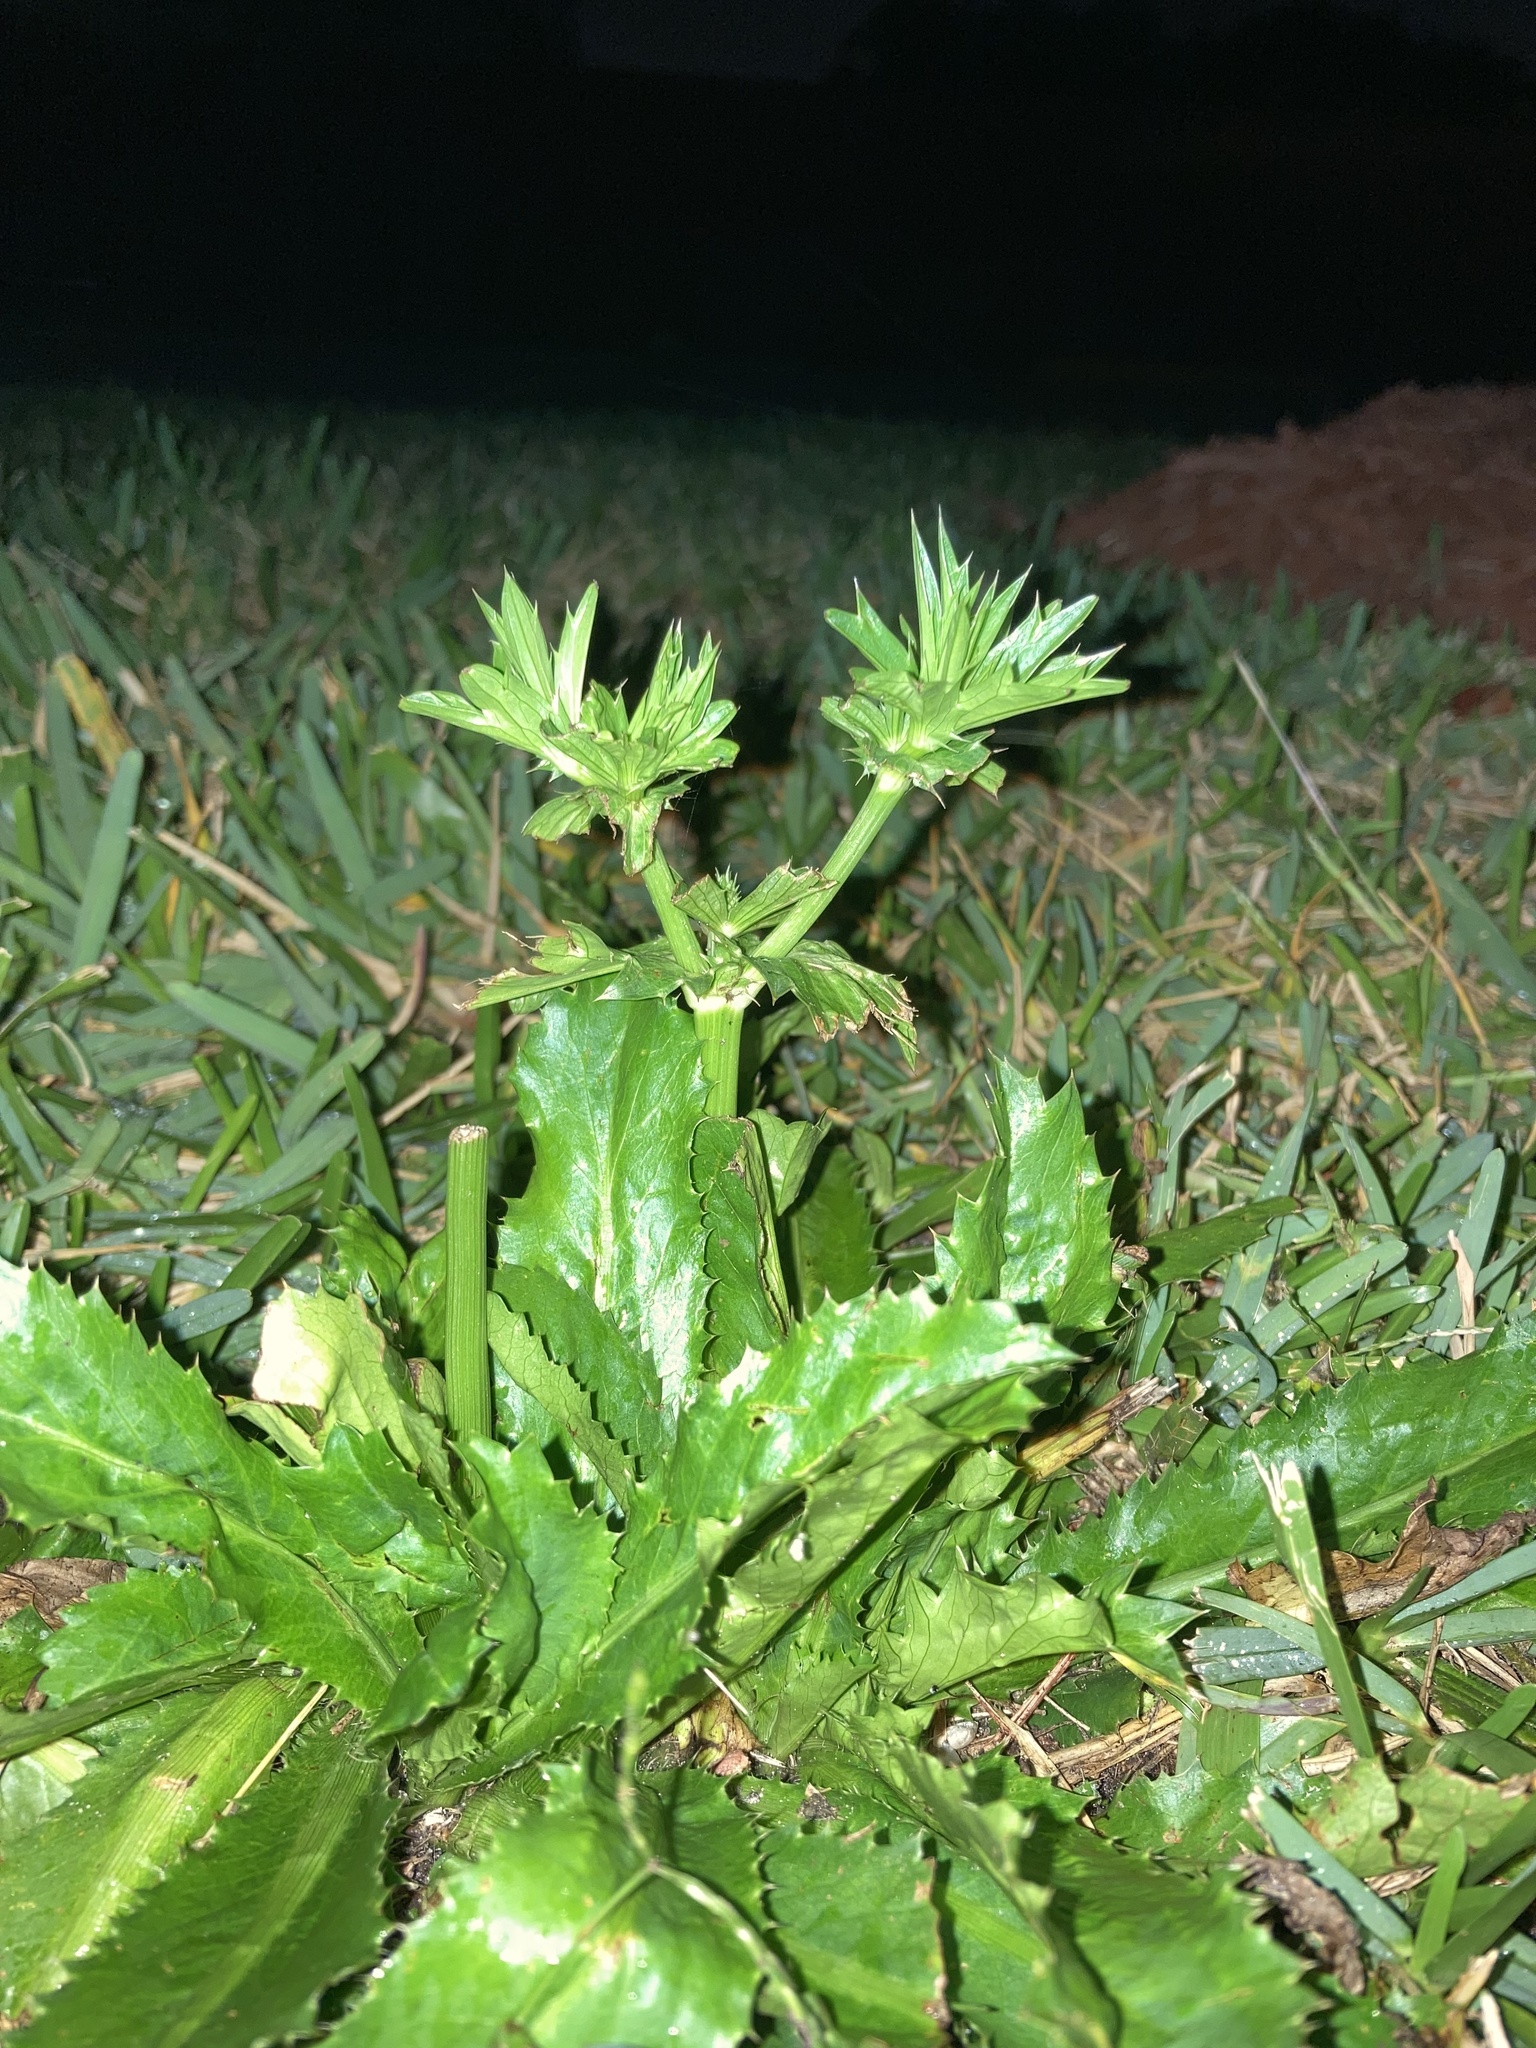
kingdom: Plantae
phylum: Tracheophyta
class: Magnoliopsida
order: Apiales
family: Apiaceae
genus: Eryngium
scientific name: Eryngium foetidum
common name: Fitweed
